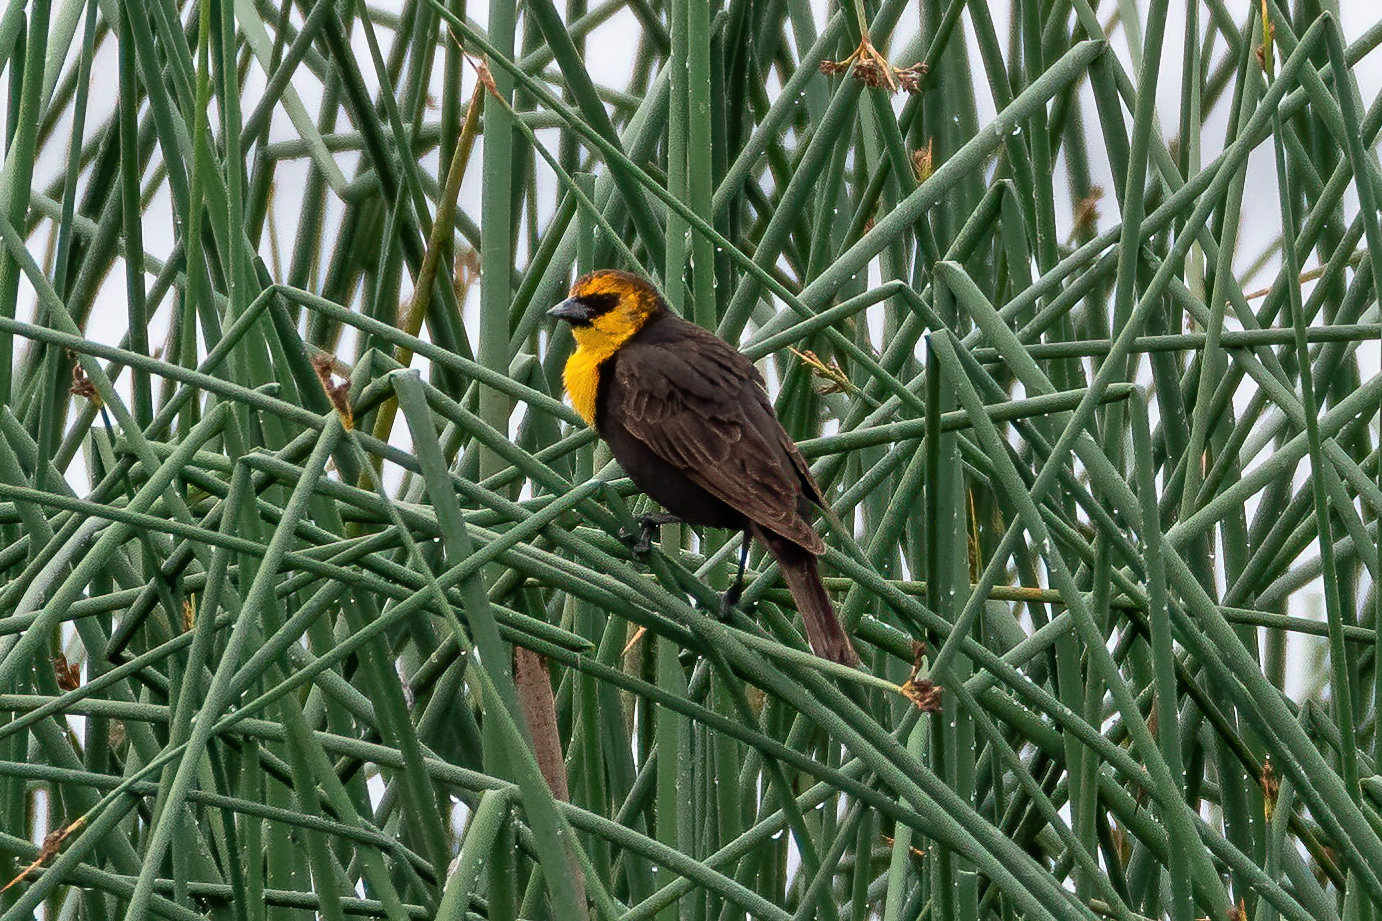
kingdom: Animalia
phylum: Chordata
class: Aves
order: Passeriformes
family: Icteridae
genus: Xanthocephalus
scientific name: Xanthocephalus xanthocephalus
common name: Yellow-headed blackbird
